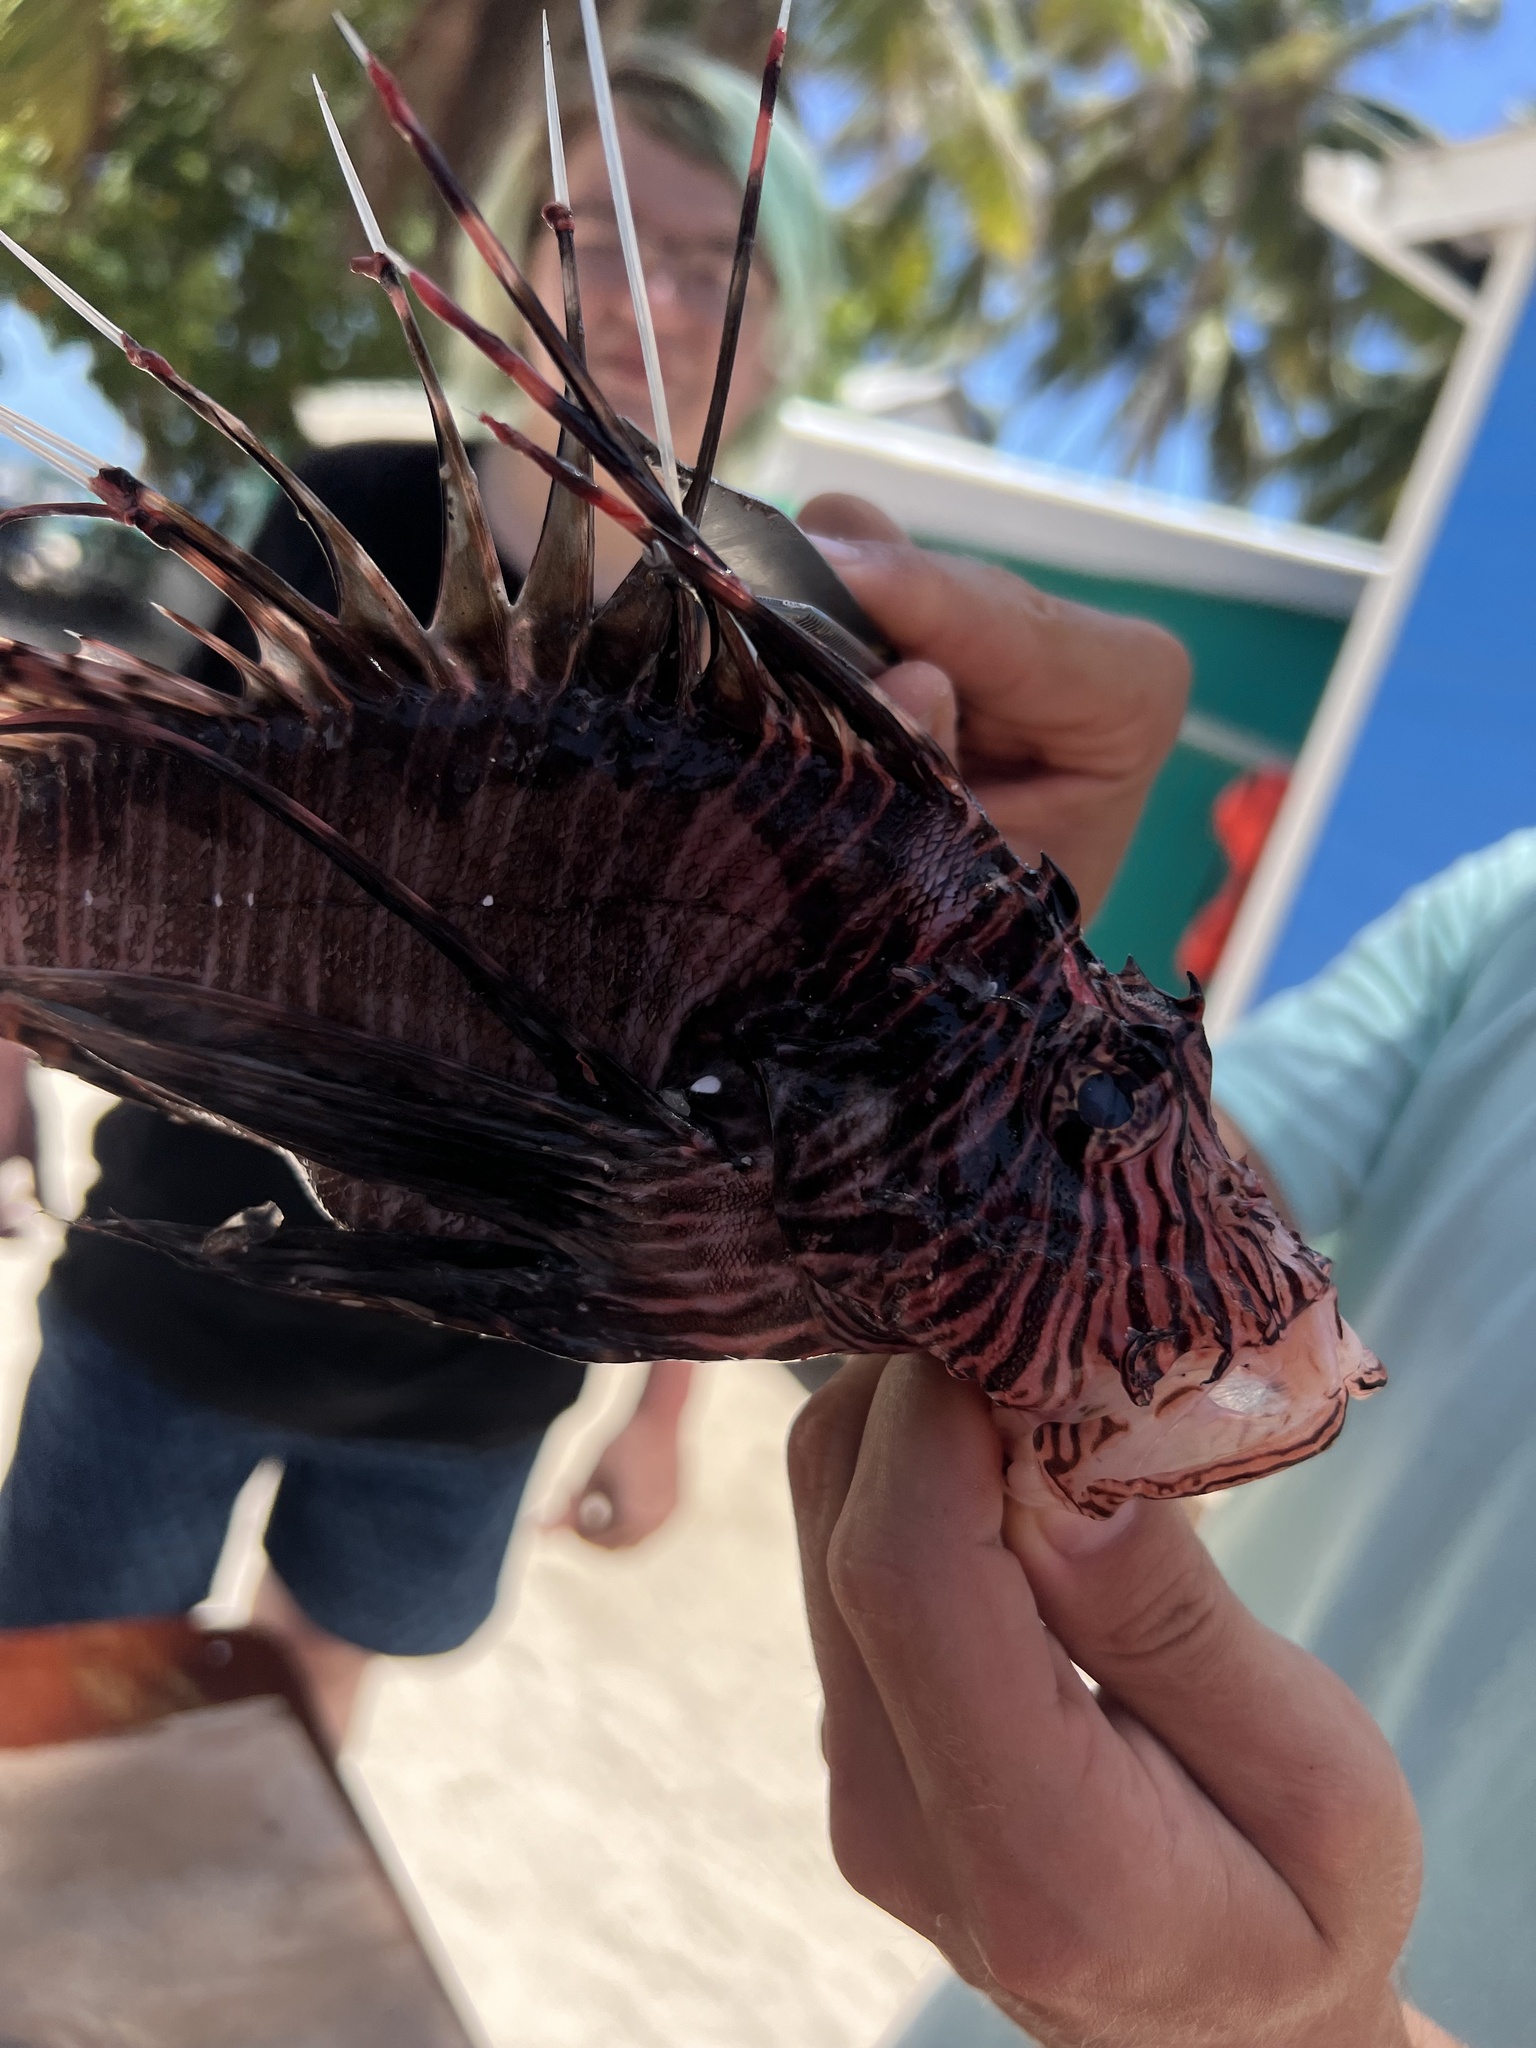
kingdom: Animalia
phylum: Chordata
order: Scorpaeniformes
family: Scorpaenidae
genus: Pterois
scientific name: Pterois volitans
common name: Lionfish
